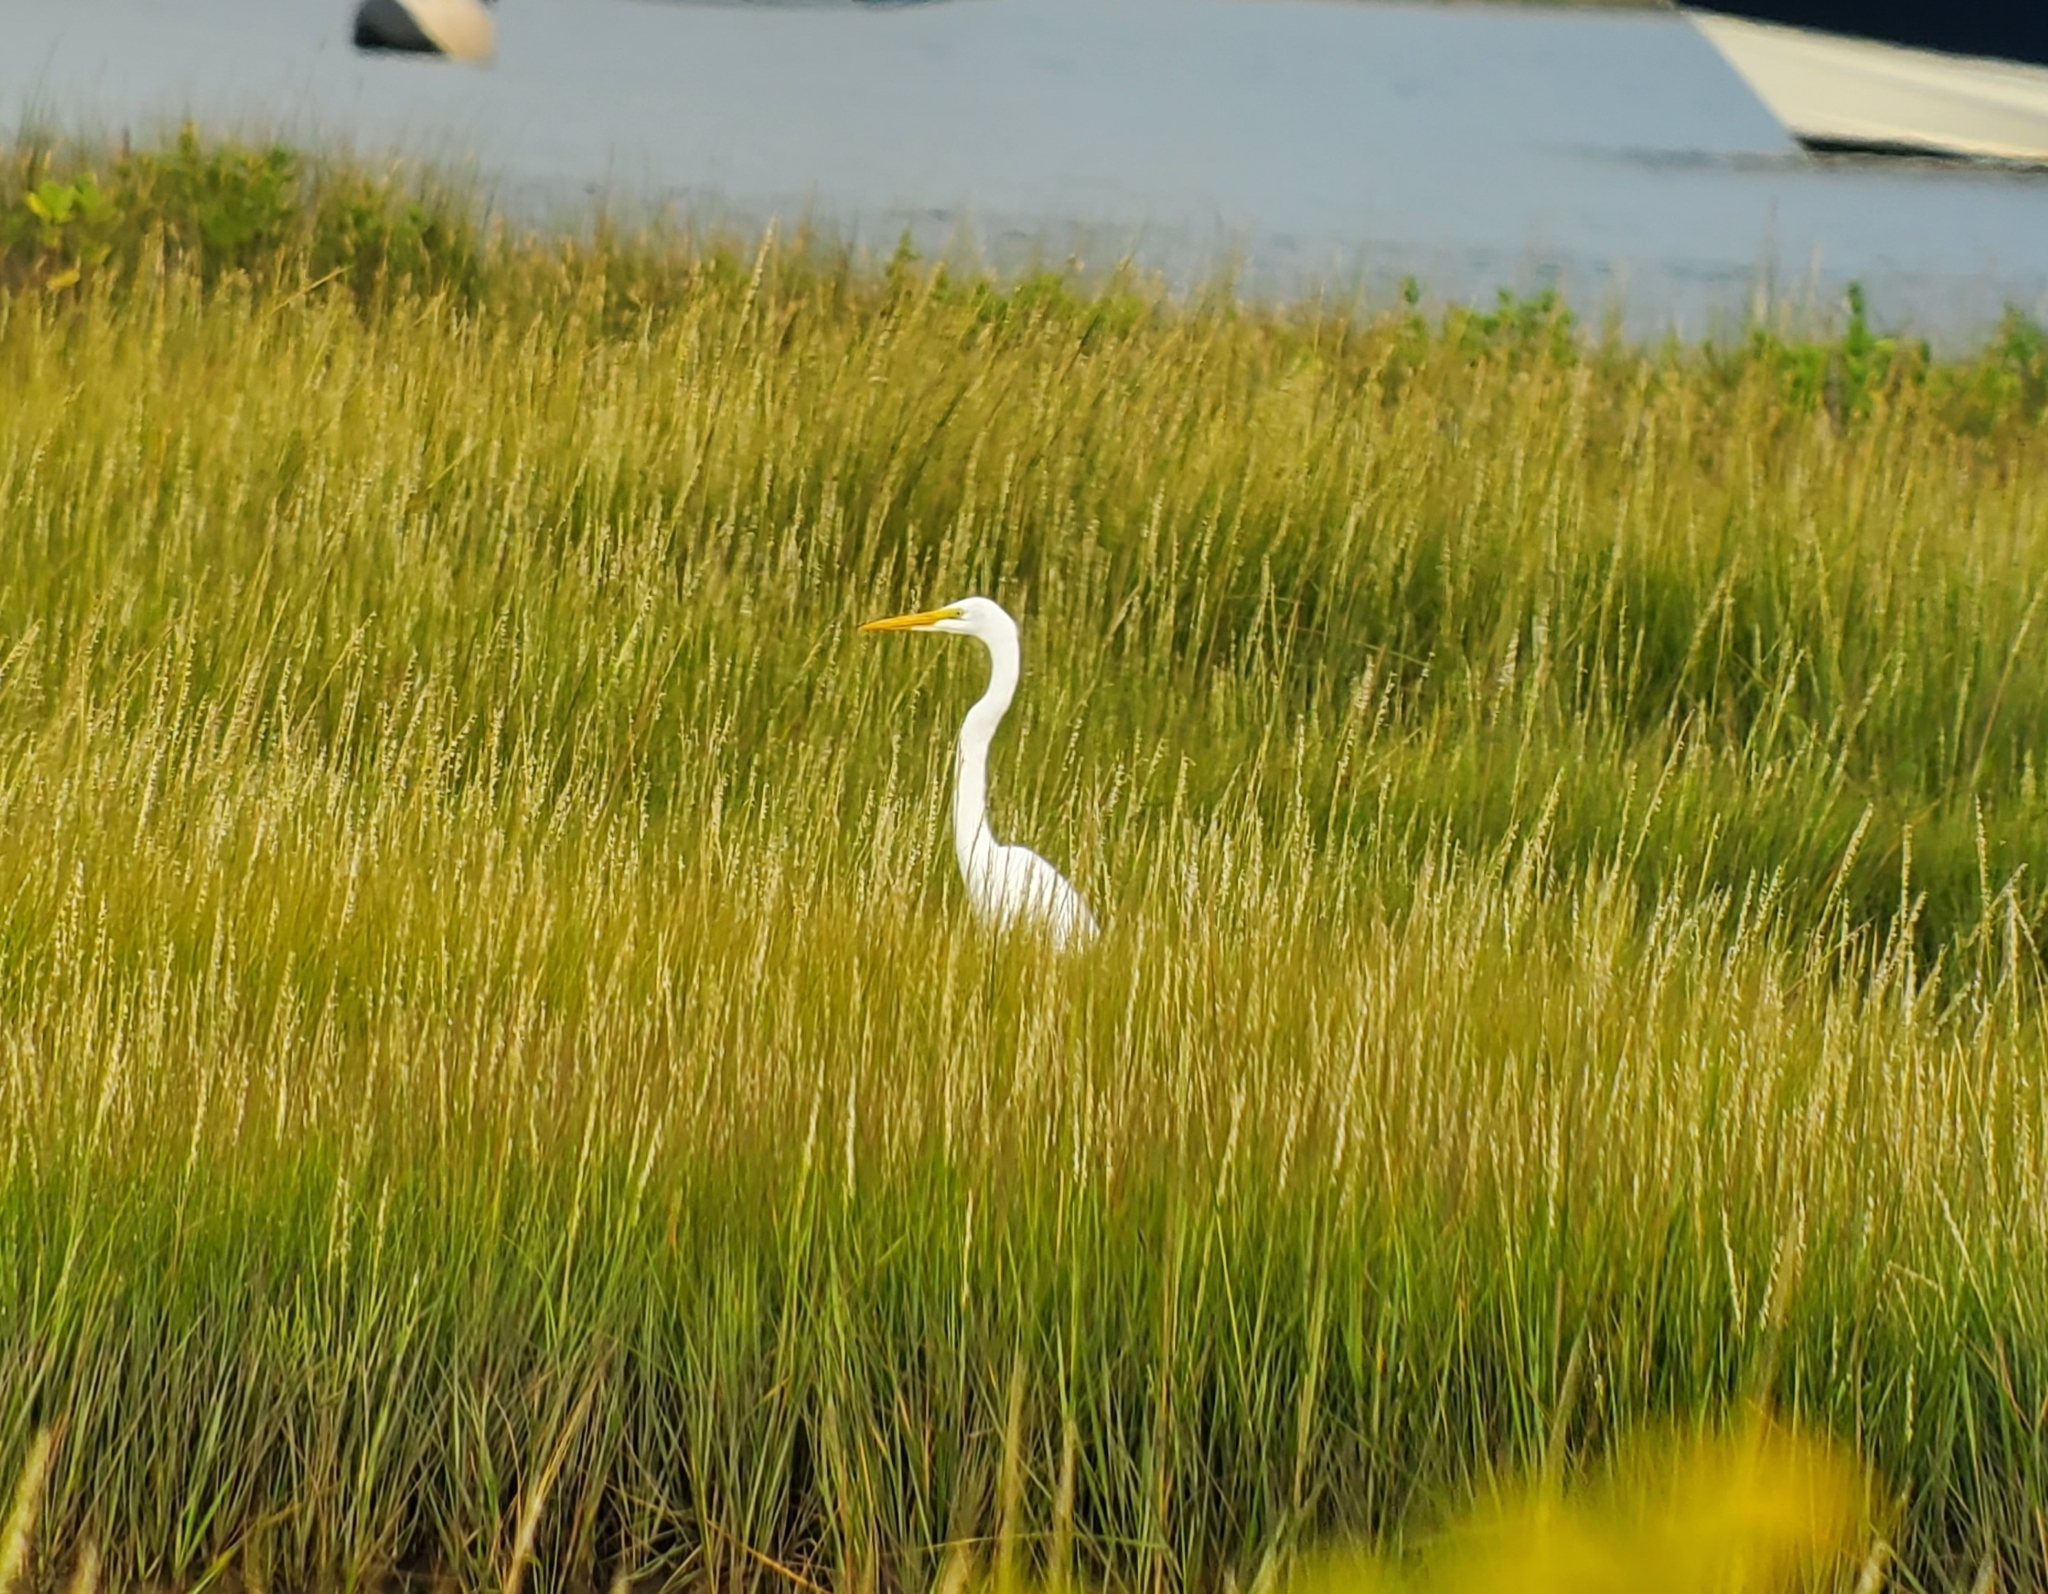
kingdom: Animalia
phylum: Chordata
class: Aves
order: Pelecaniformes
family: Ardeidae
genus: Ardea
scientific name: Ardea alba
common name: Great egret
